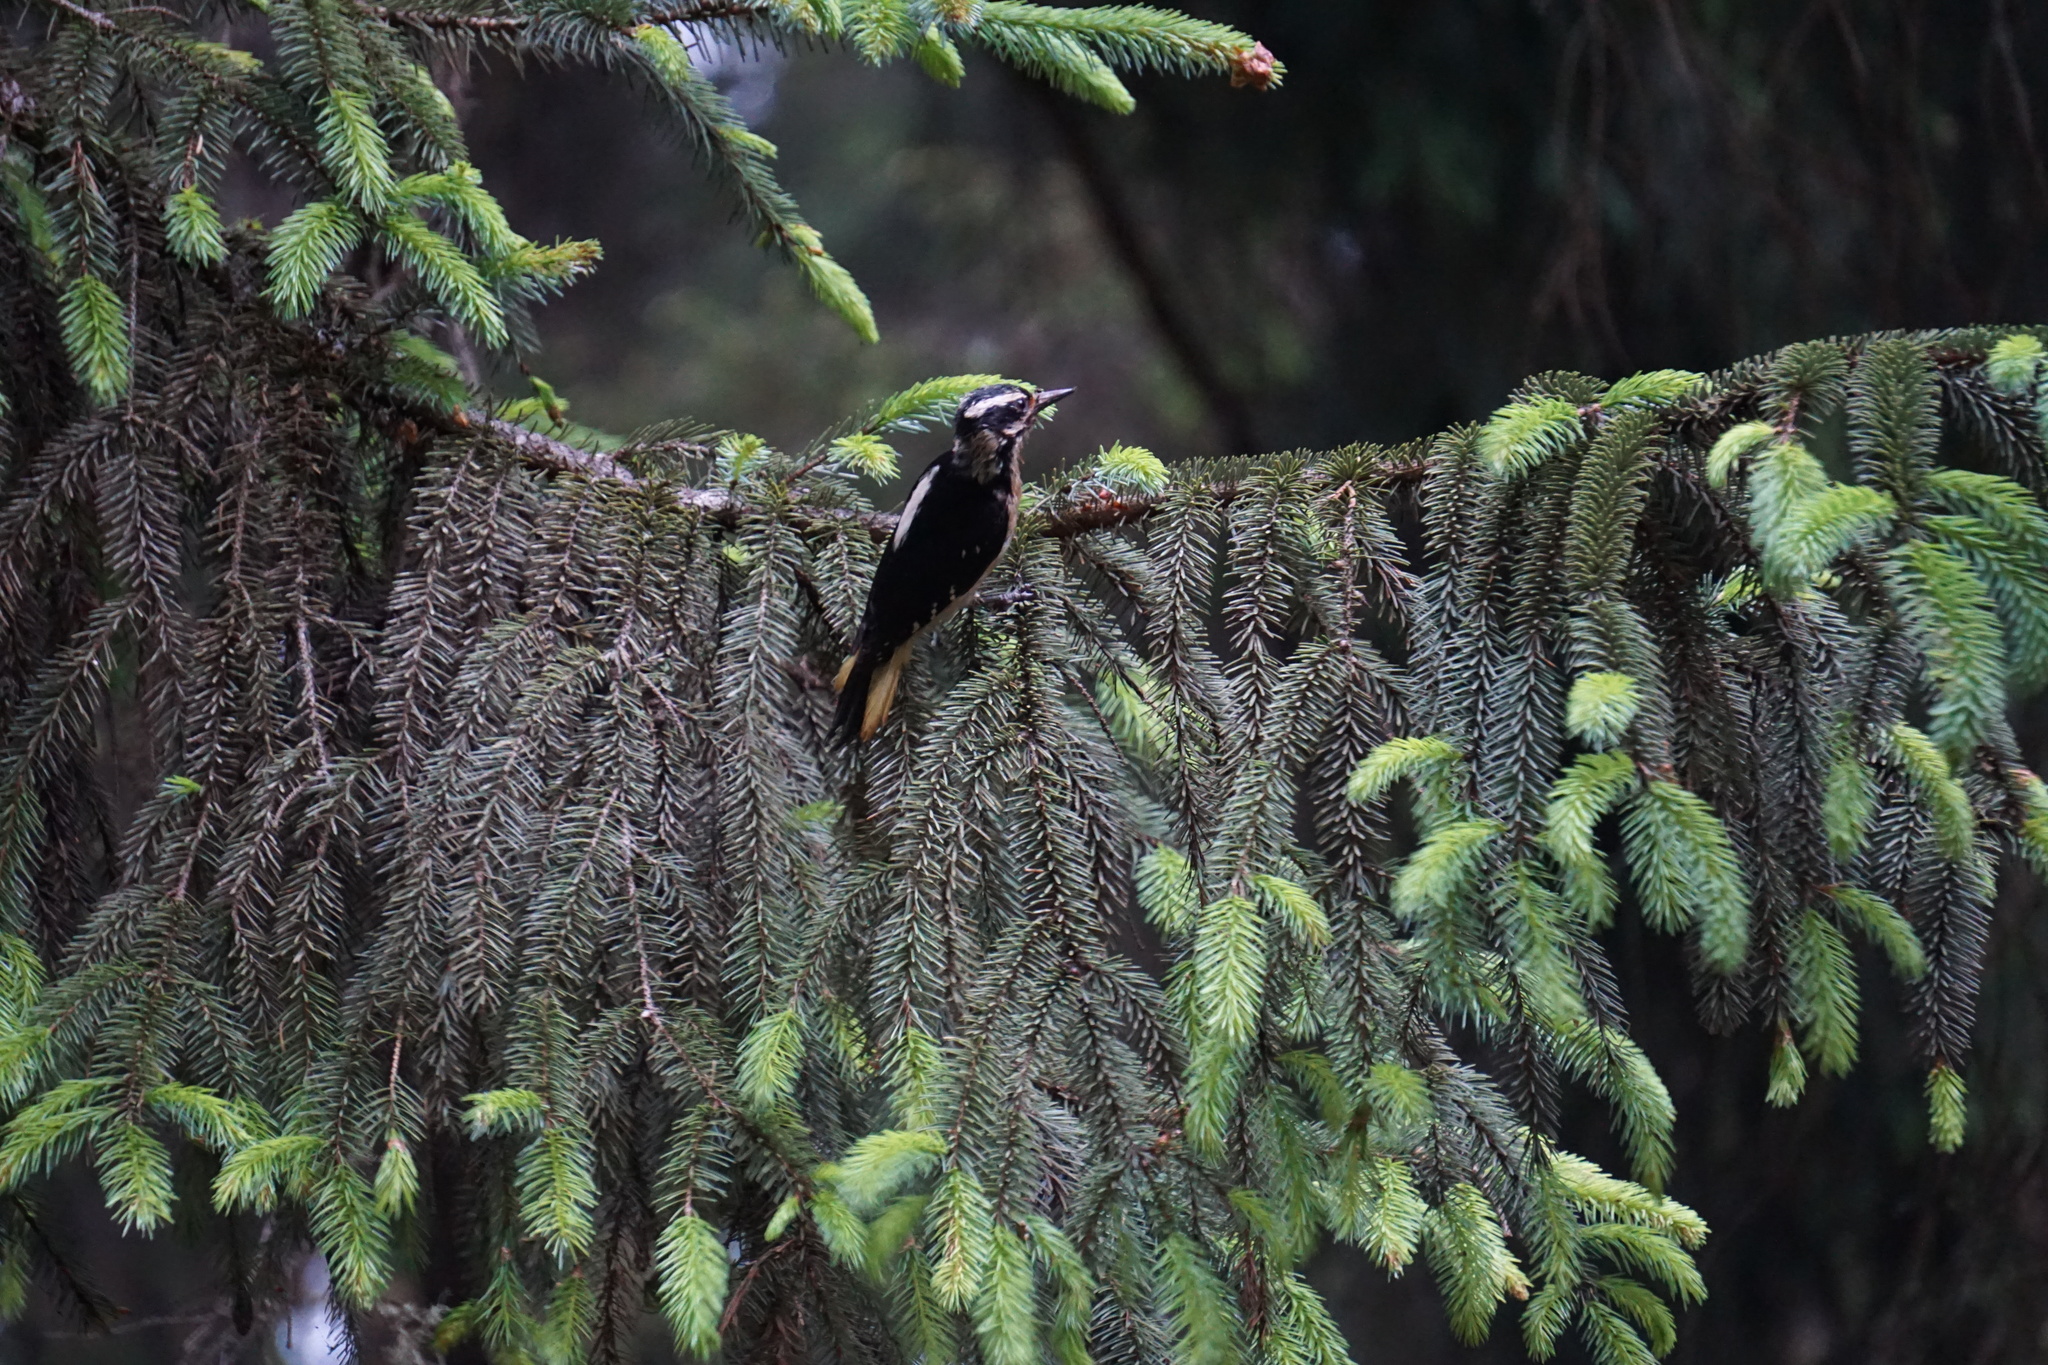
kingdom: Animalia
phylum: Chordata
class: Aves
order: Piciformes
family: Picidae
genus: Leuconotopicus
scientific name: Leuconotopicus villosus
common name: Hairy woodpecker
